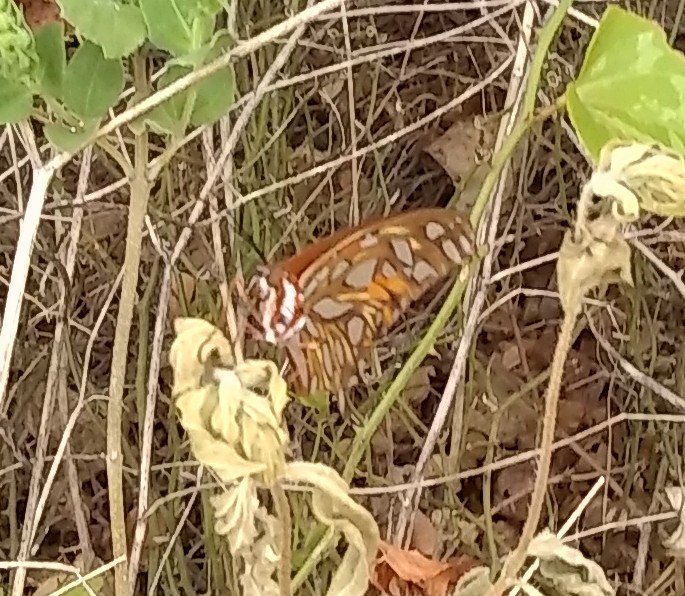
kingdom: Animalia
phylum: Arthropoda
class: Insecta
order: Lepidoptera
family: Nymphalidae
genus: Dione
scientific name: Dione vanillae
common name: Gulf fritillary
